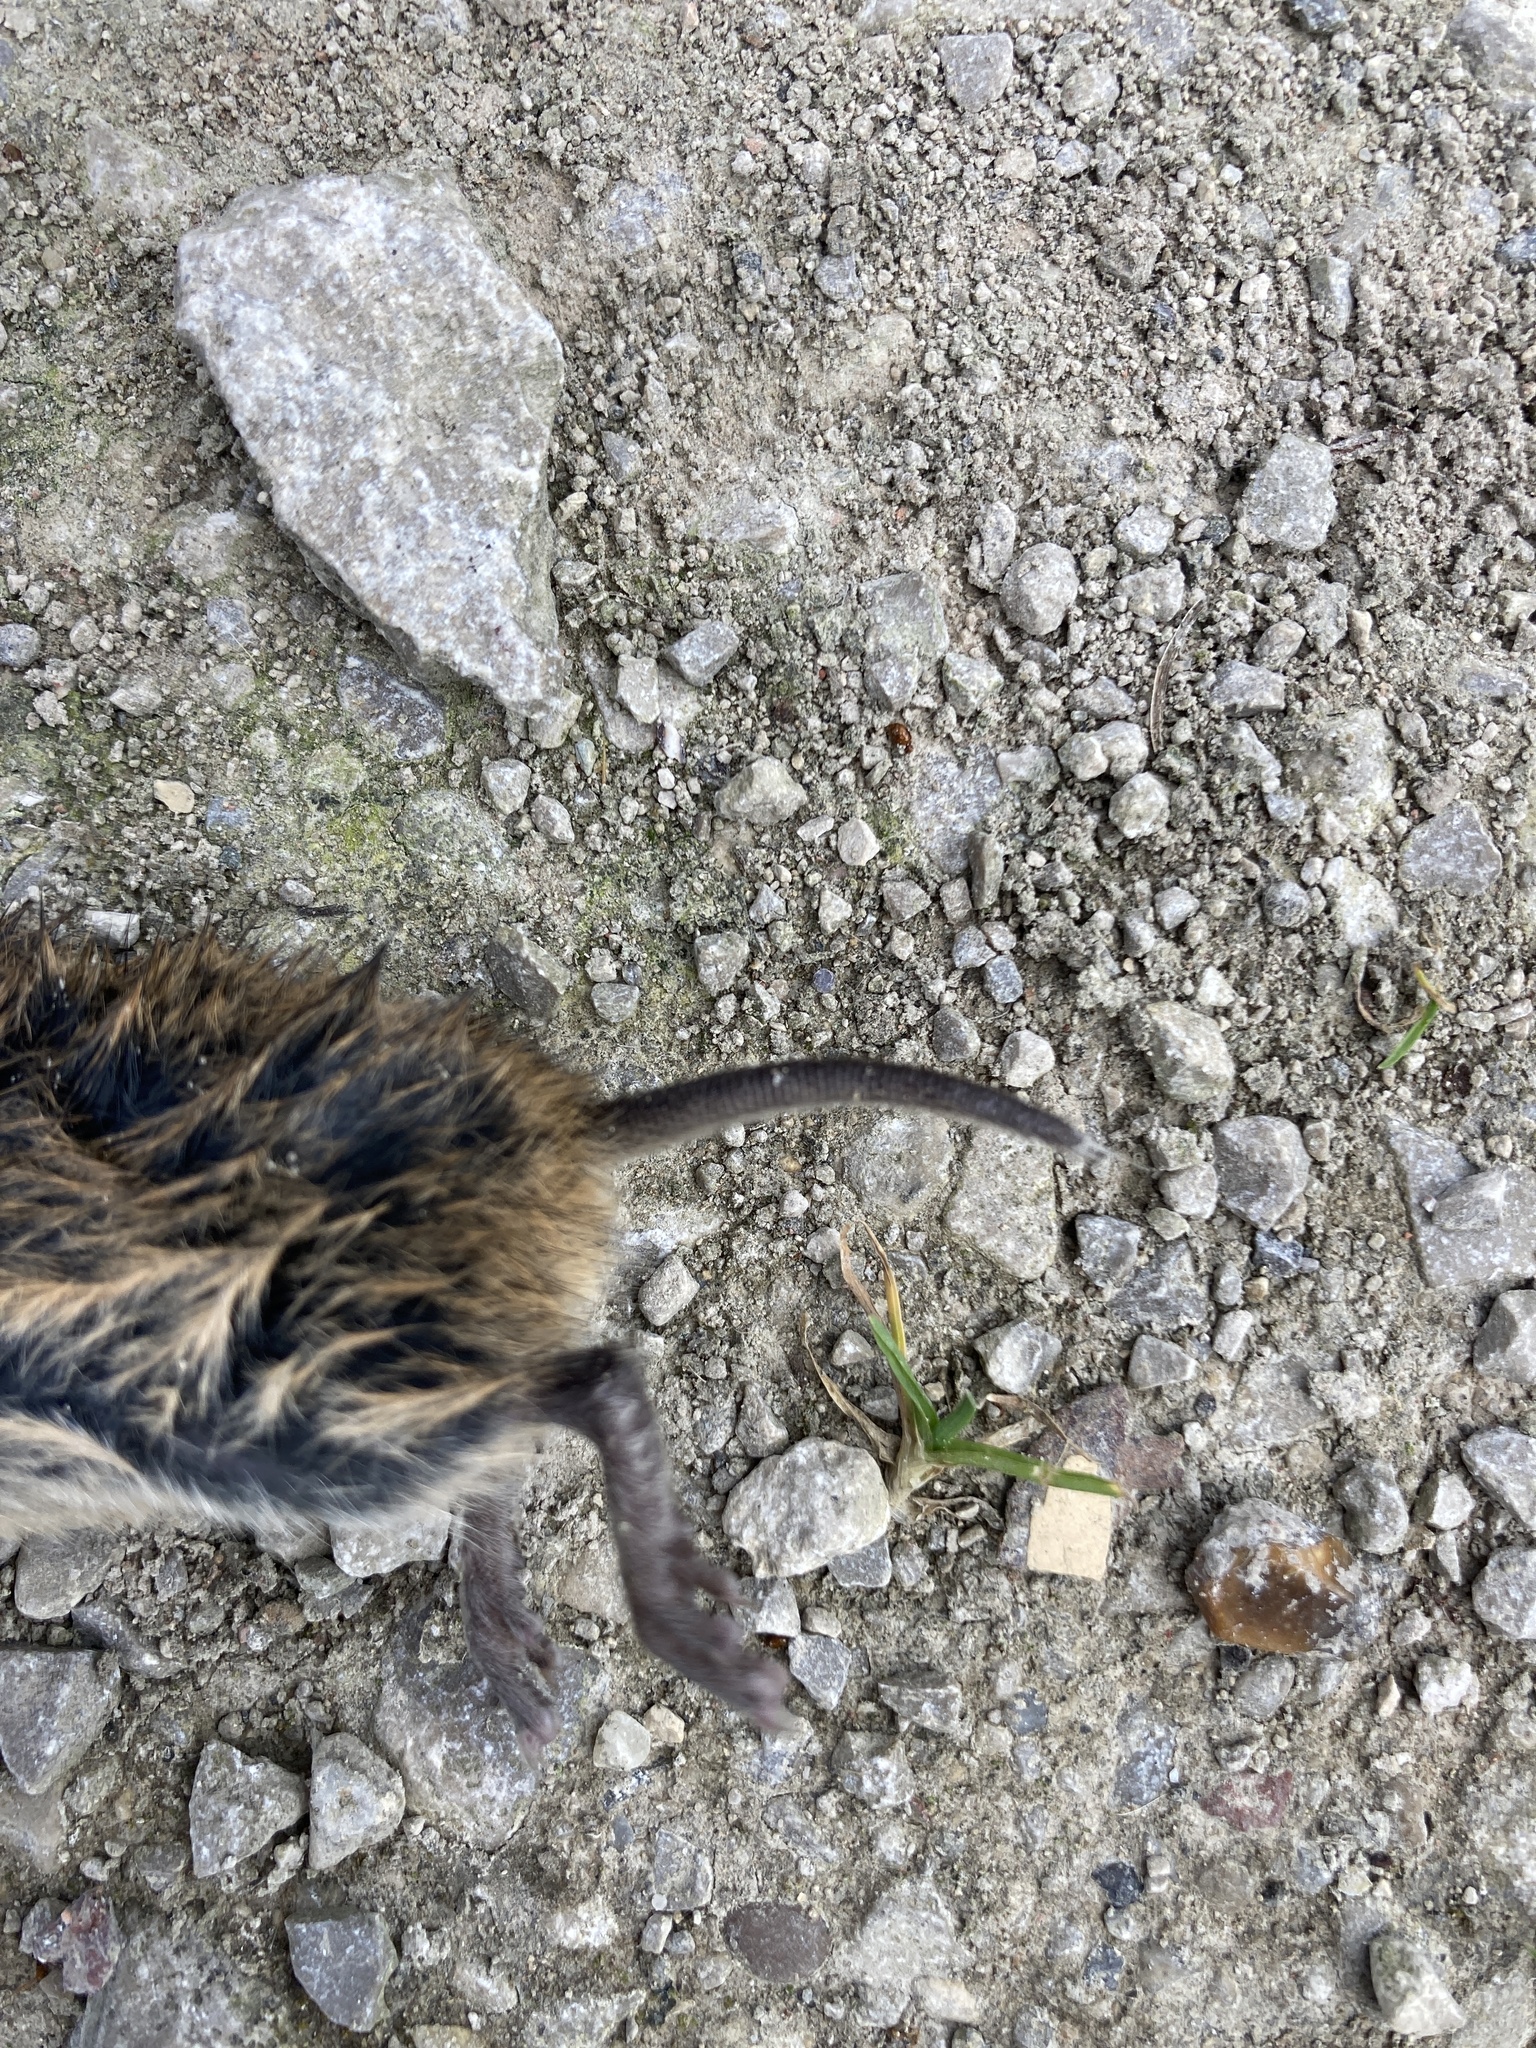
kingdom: Animalia
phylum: Chordata
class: Mammalia
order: Rodentia
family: Cricetidae
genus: Microtus
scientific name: Microtus agrestis
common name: Field vole
